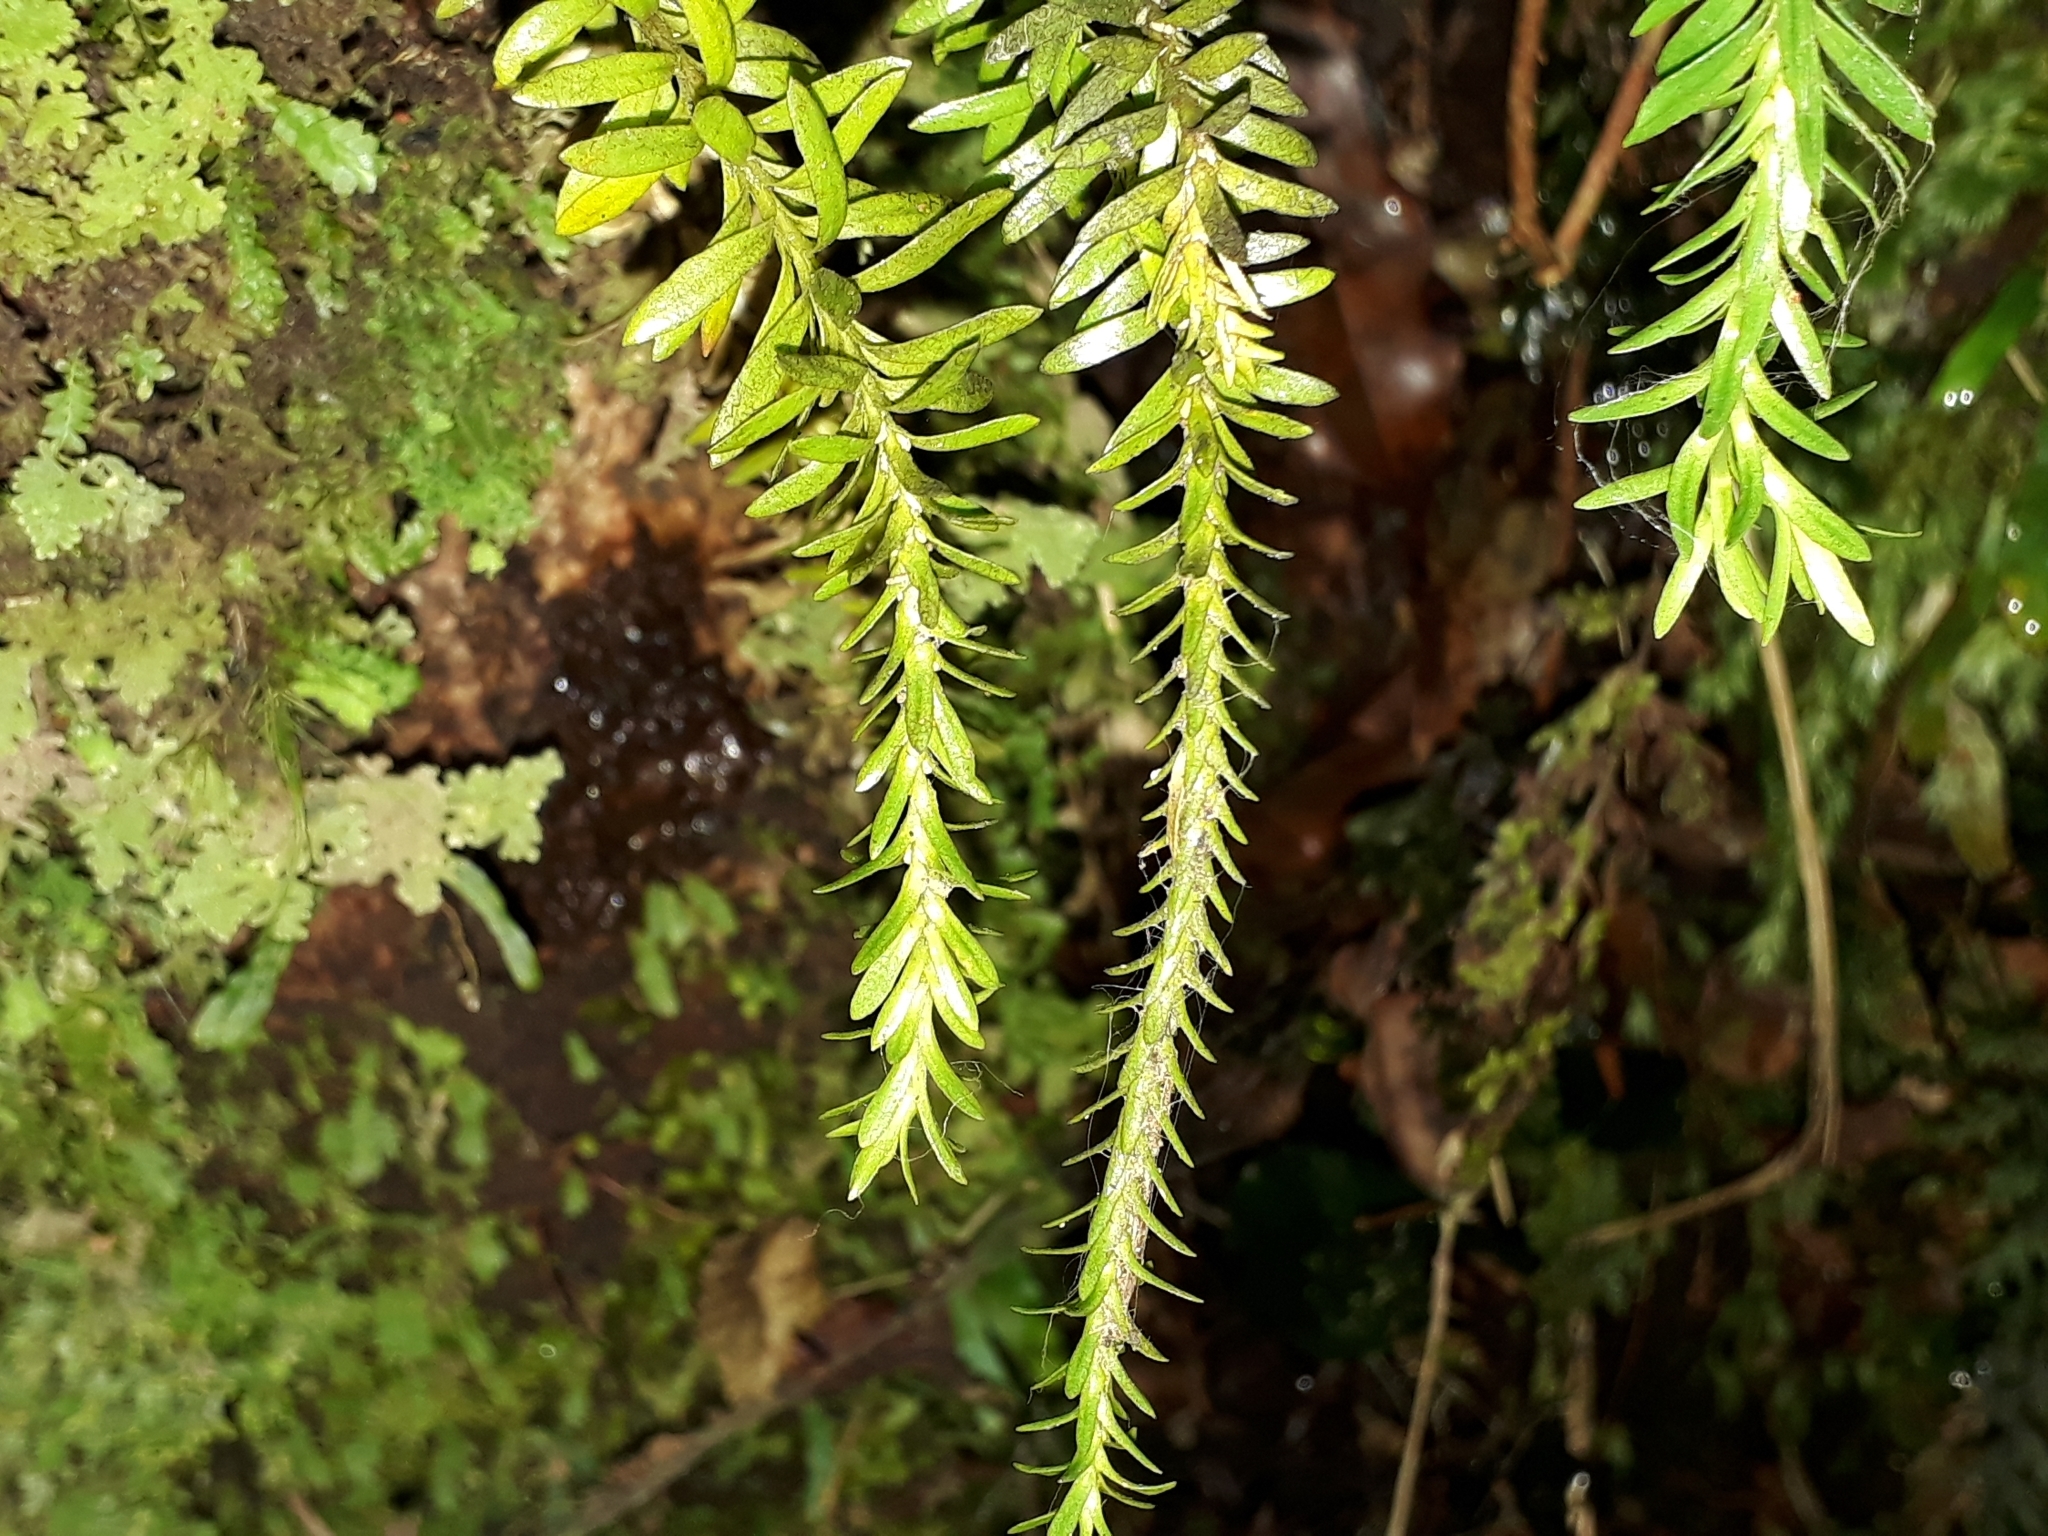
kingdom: Plantae
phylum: Tracheophyta
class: Lycopodiopsida
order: Lycopodiales
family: Lycopodiaceae
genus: Phlegmariurus
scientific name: Phlegmariurus varius
